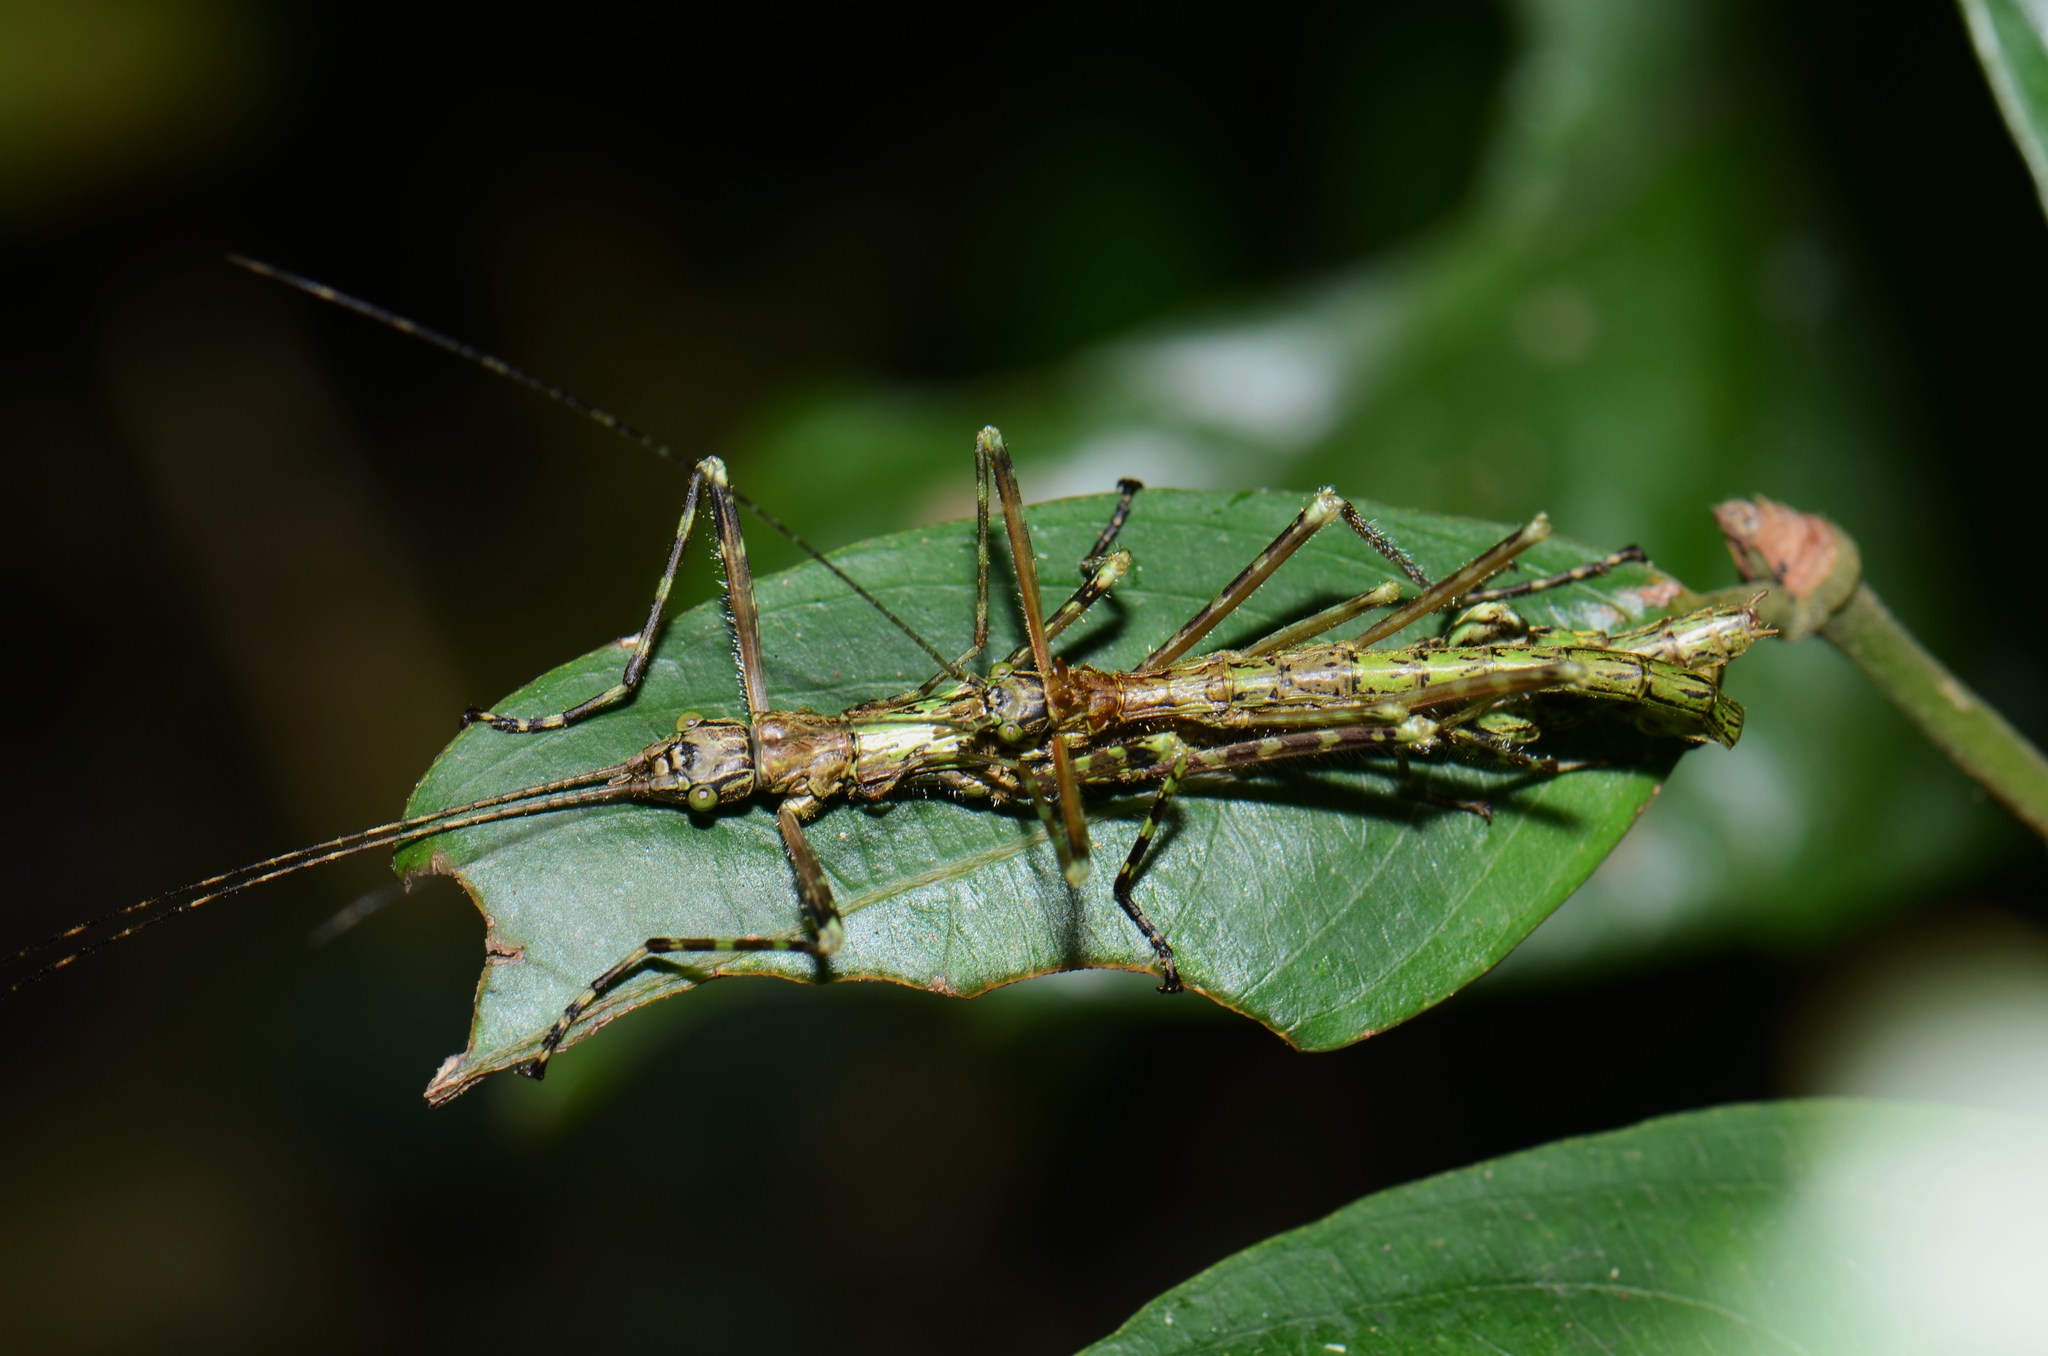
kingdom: Animalia
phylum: Arthropoda
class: Insecta
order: Phasmida
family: Aschiphasmatidae
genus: Parabrosoma
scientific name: Parabrosoma brevifemurum
